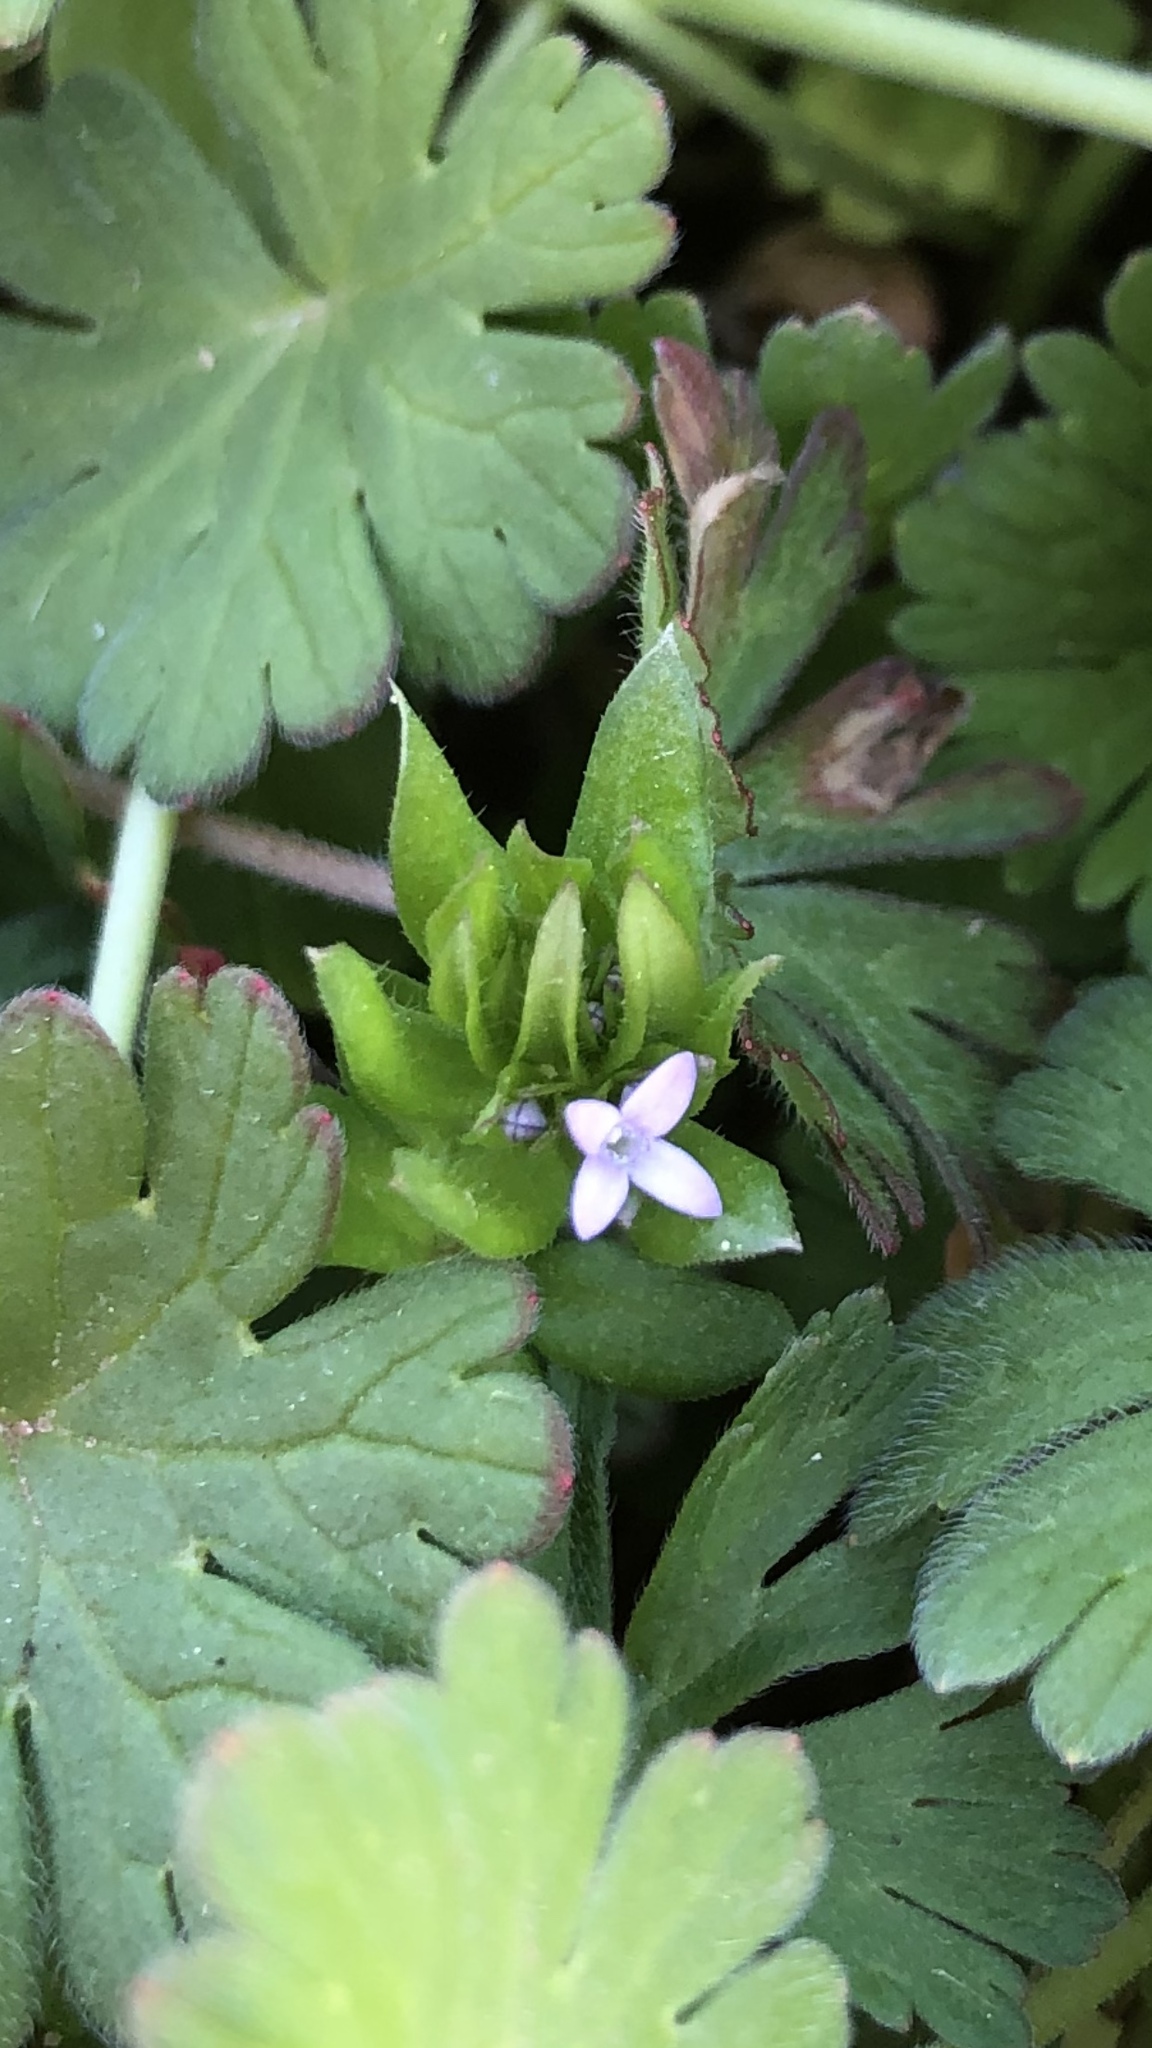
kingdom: Plantae
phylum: Tracheophyta
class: Magnoliopsida
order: Gentianales
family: Rubiaceae
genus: Sherardia
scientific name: Sherardia arvensis
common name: Field madder
